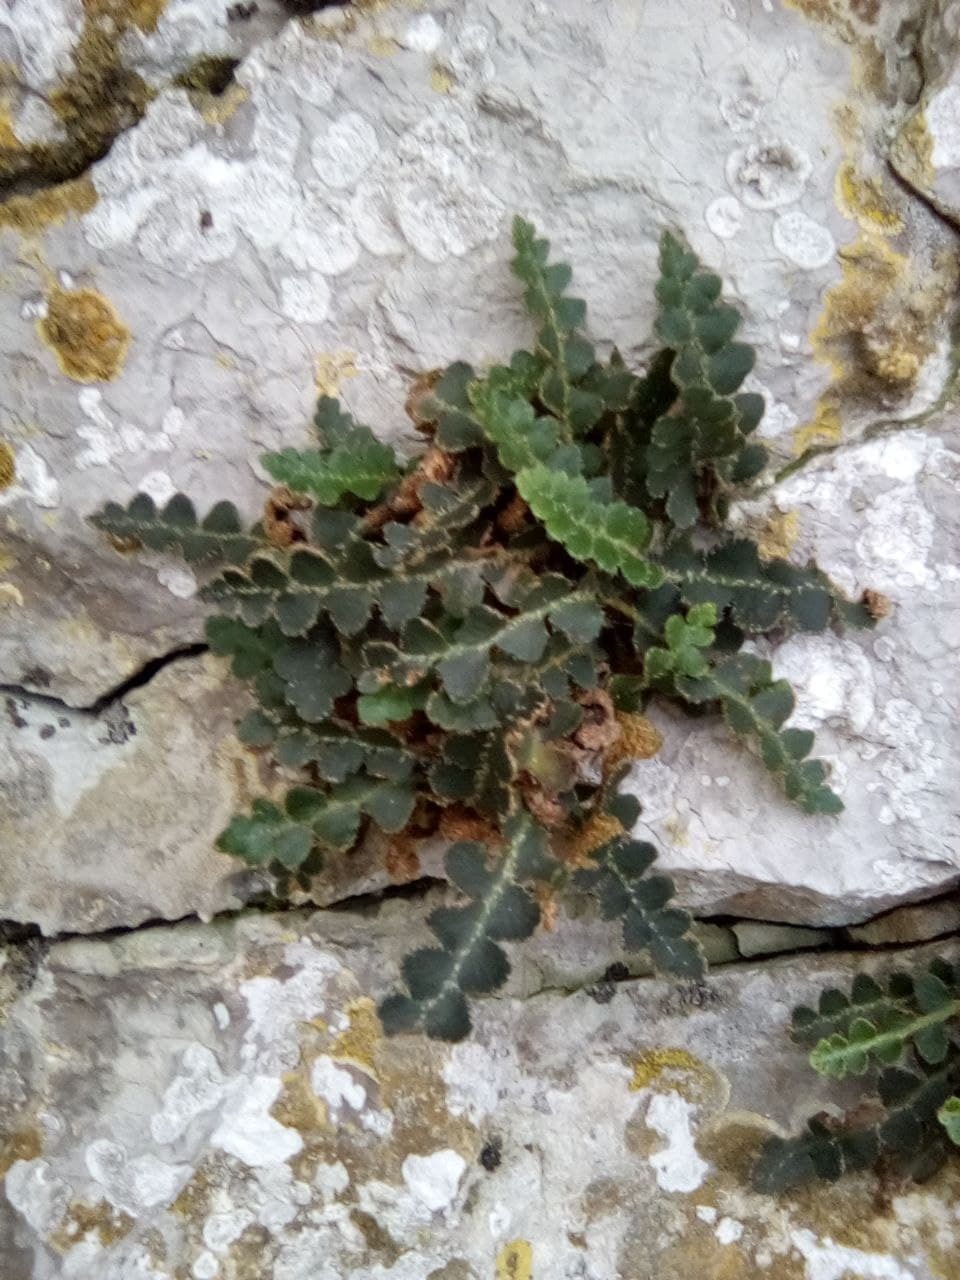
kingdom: Plantae
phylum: Tracheophyta
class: Polypodiopsida
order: Polypodiales
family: Aspleniaceae
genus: Asplenium
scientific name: Asplenium ceterach
